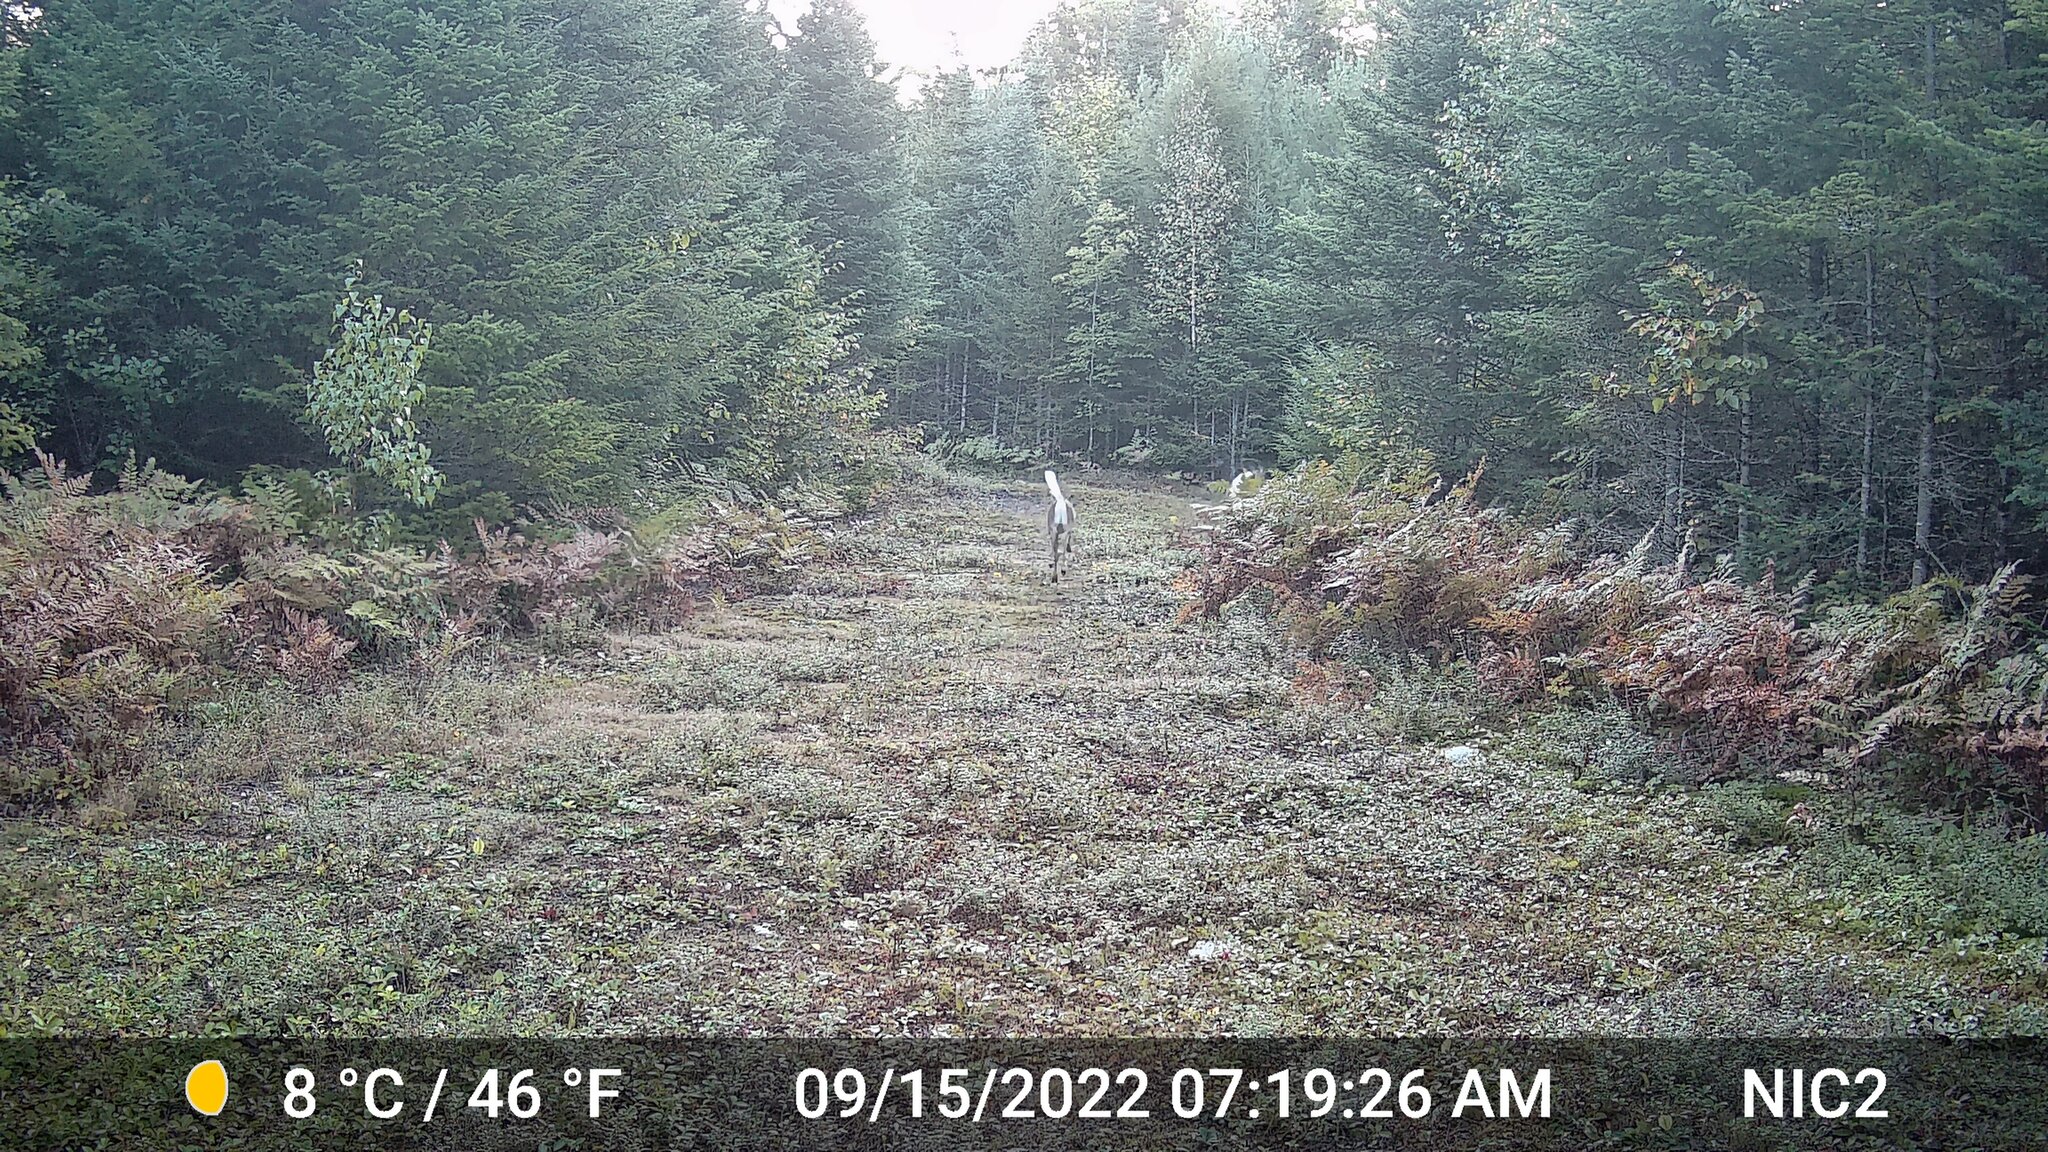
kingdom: Animalia
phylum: Chordata
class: Mammalia
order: Artiodactyla
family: Cervidae
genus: Odocoileus
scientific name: Odocoileus virginianus
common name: White-tailed deer
